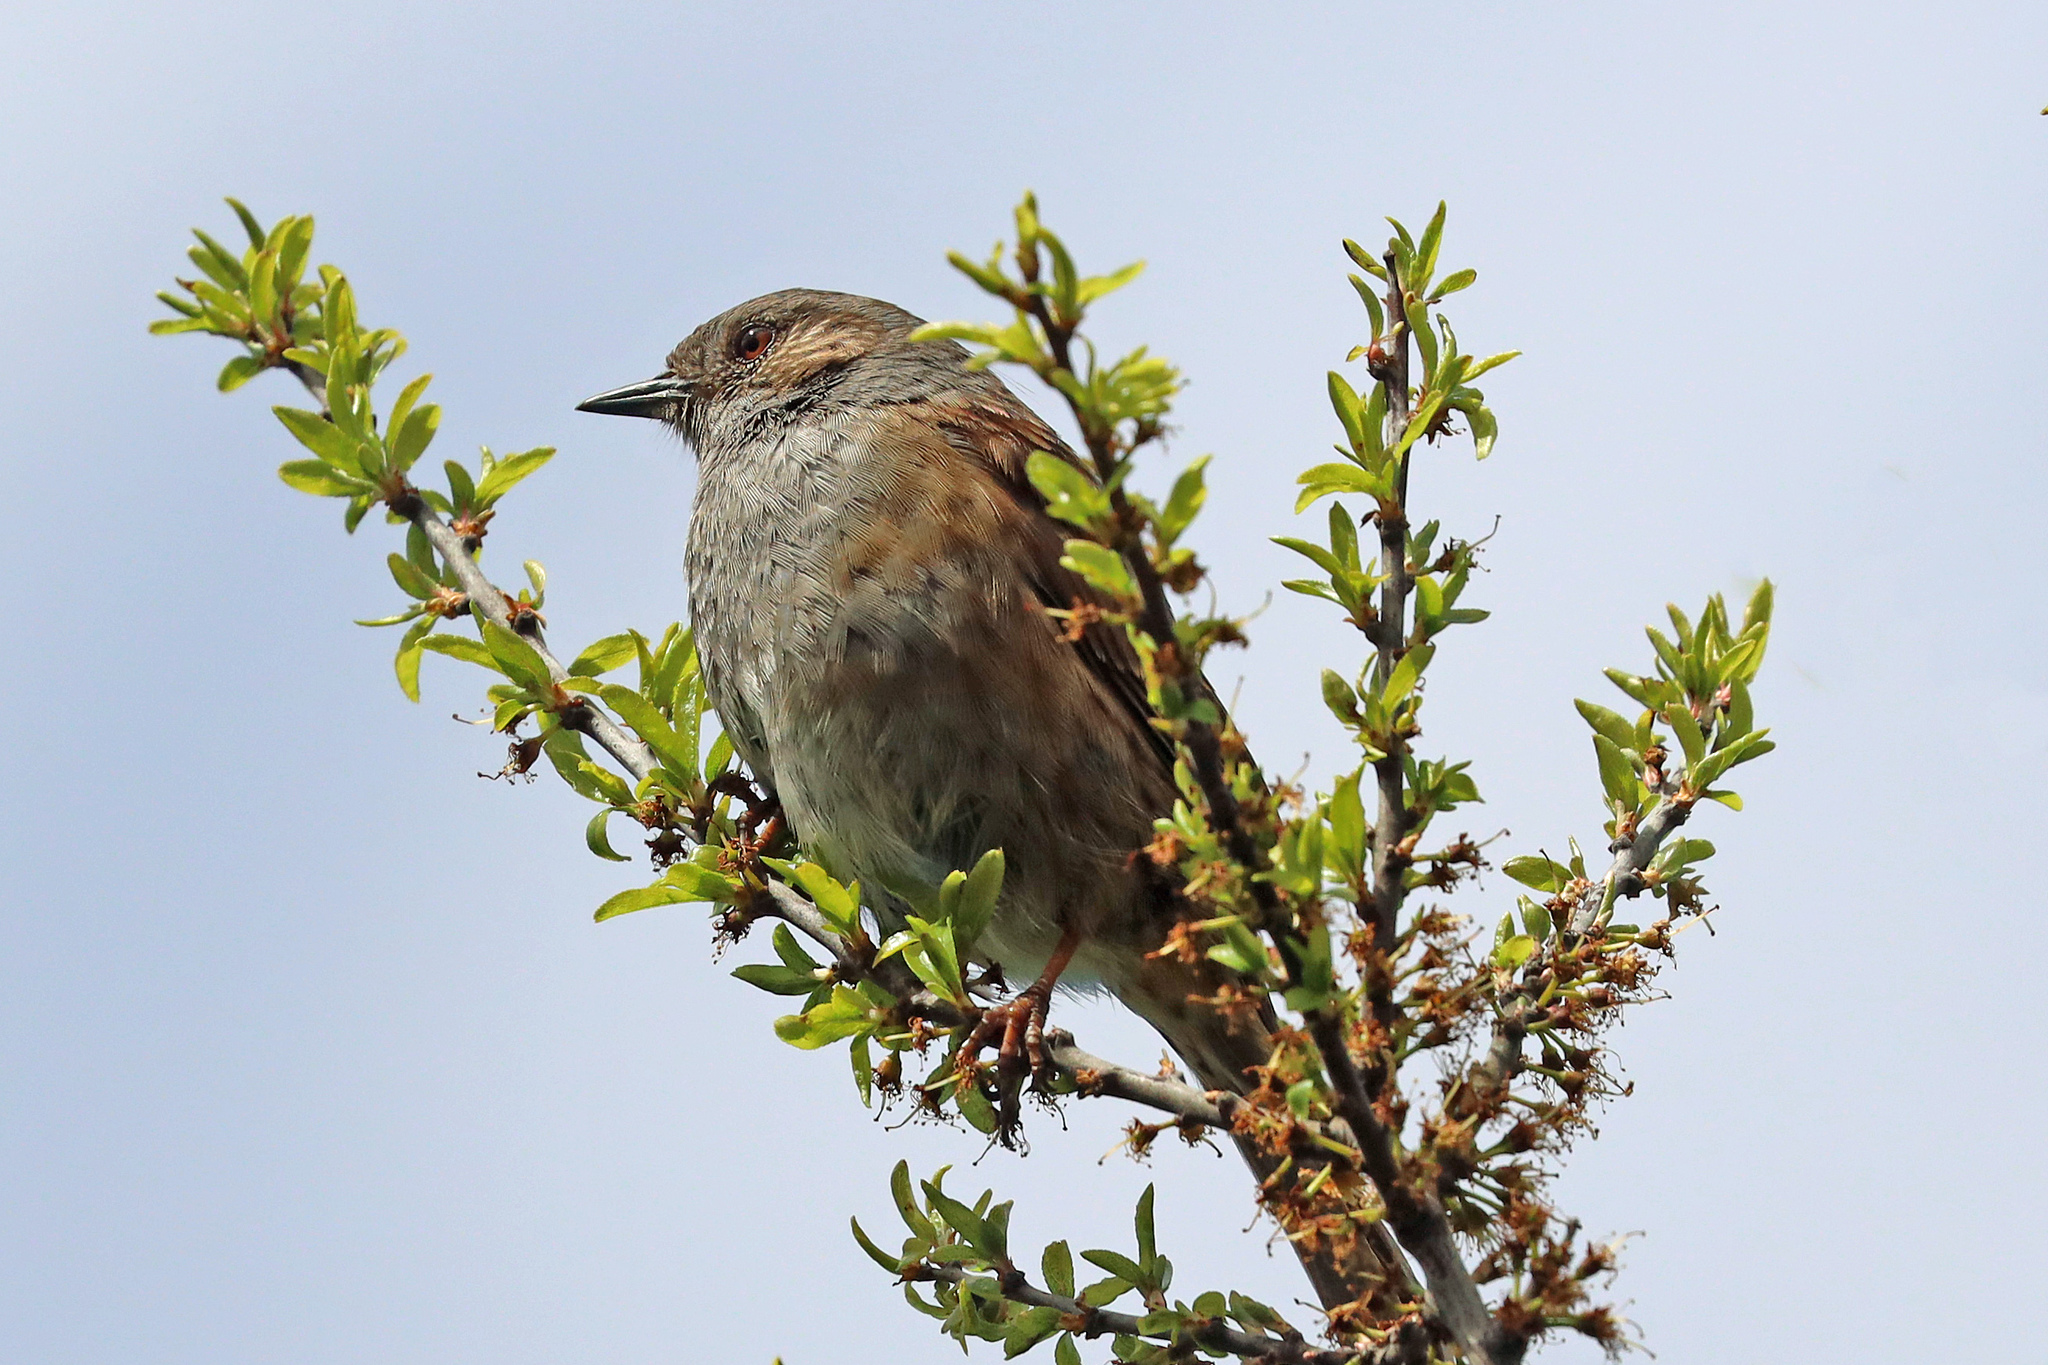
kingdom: Animalia
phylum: Chordata
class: Aves
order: Passeriformes
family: Prunellidae
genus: Prunella
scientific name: Prunella modularis
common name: Dunnock
